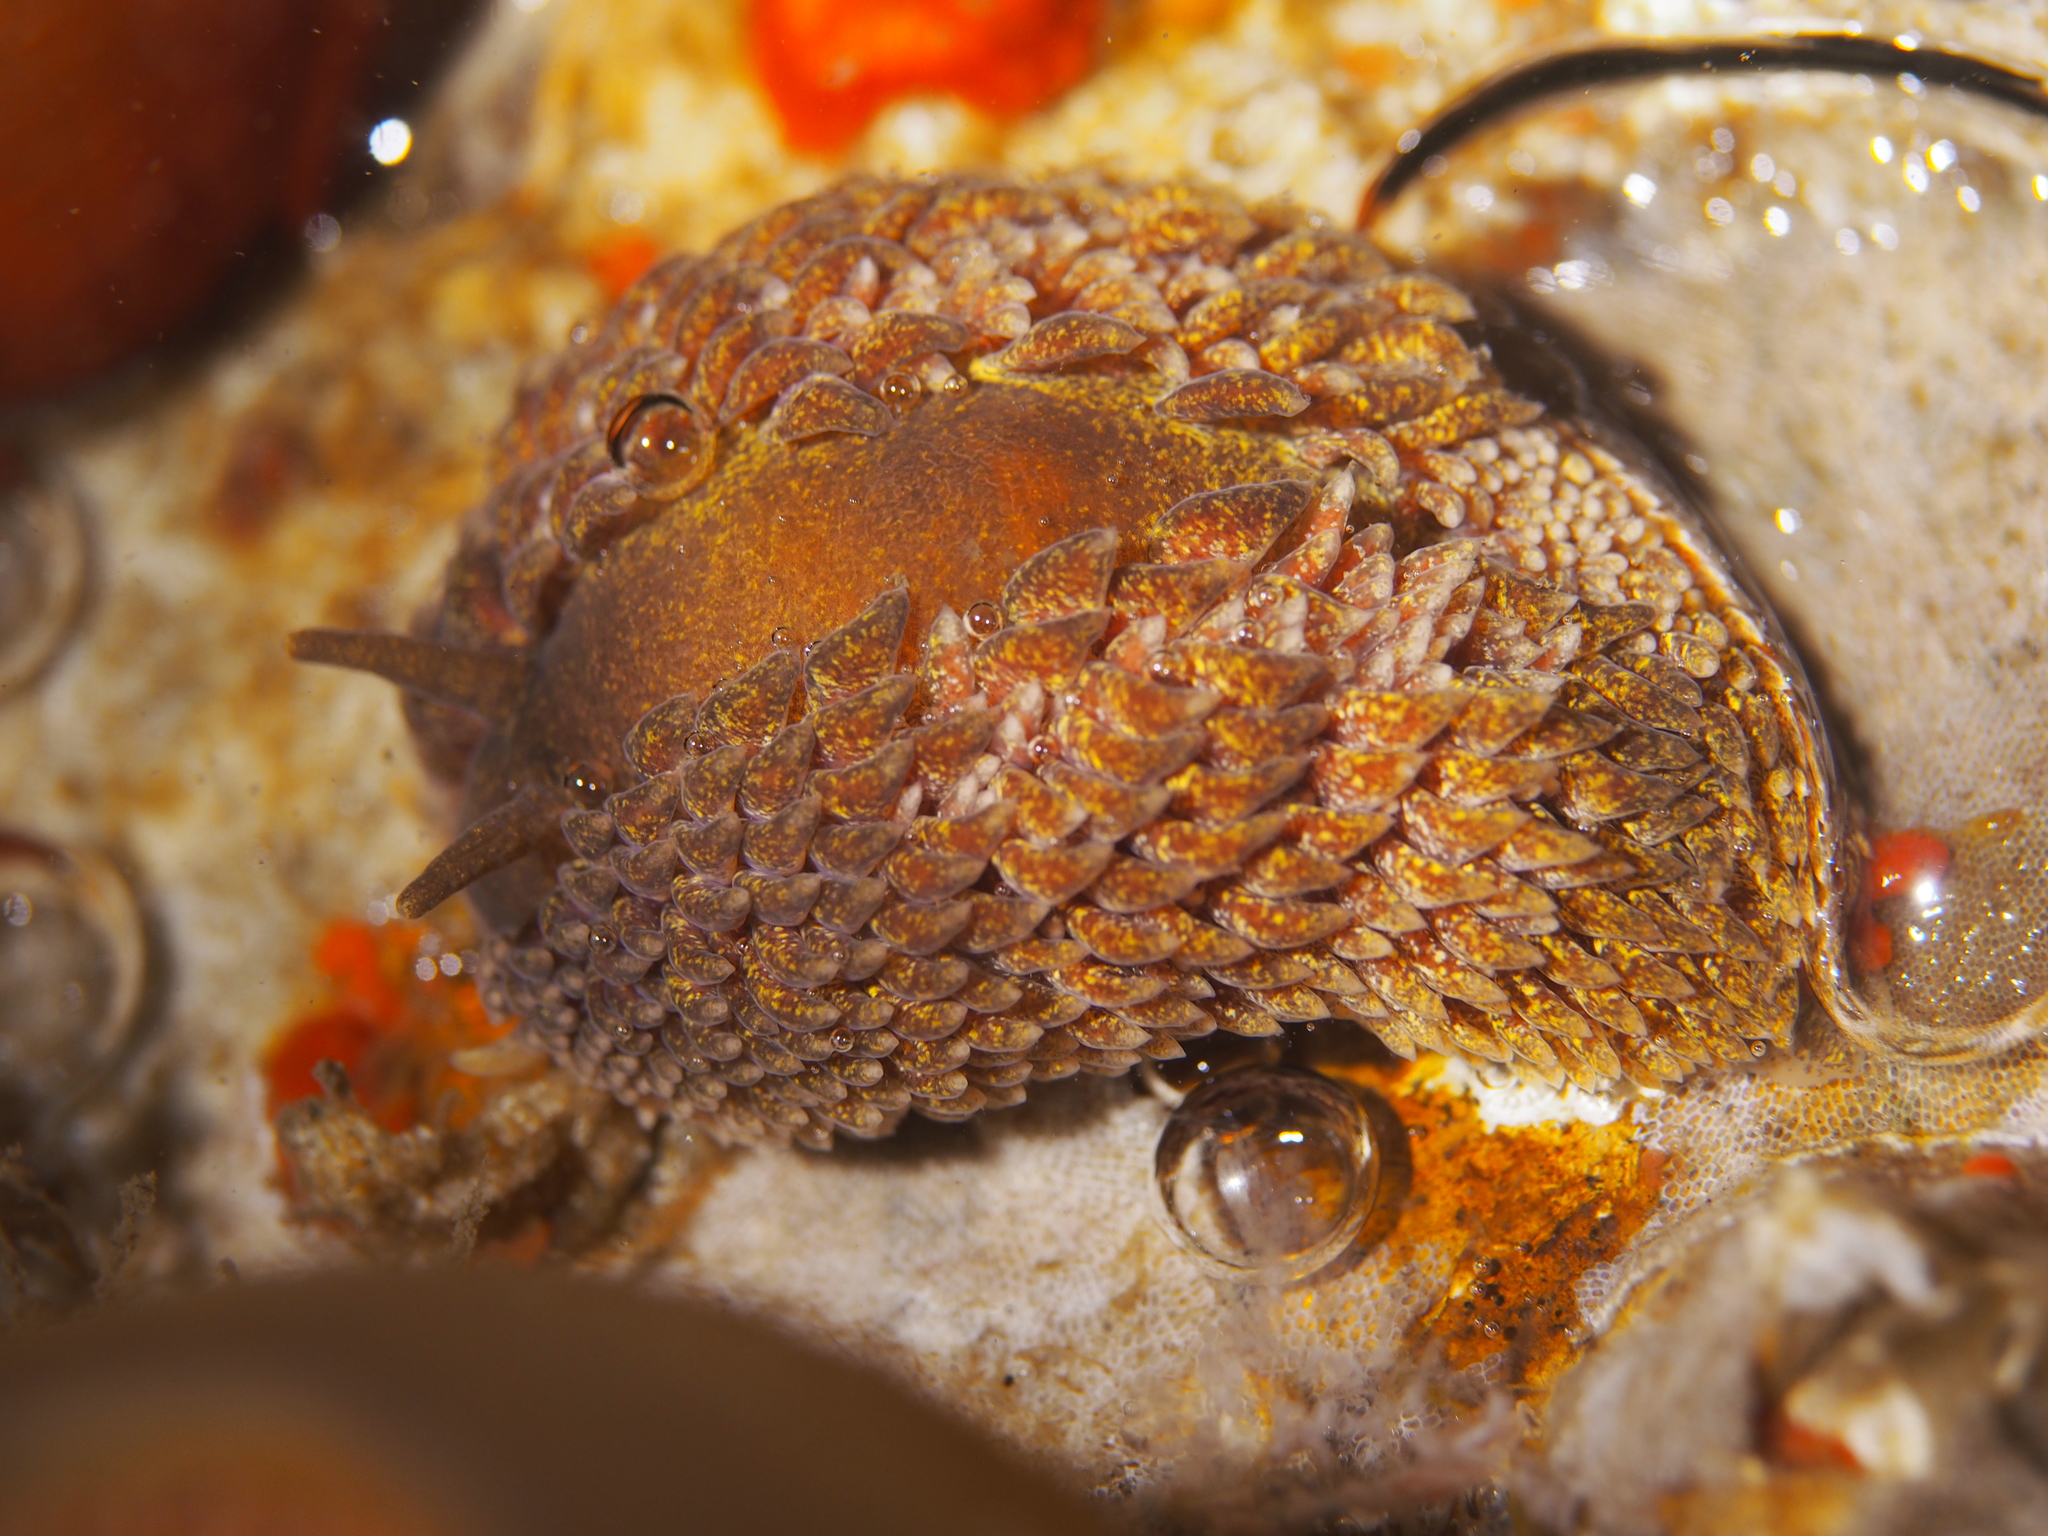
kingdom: Animalia
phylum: Mollusca
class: Gastropoda
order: Nudibranchia
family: Aeolidiidae
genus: Aeolidia
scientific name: Aeolidia papillosa
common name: Common grey sea slug
